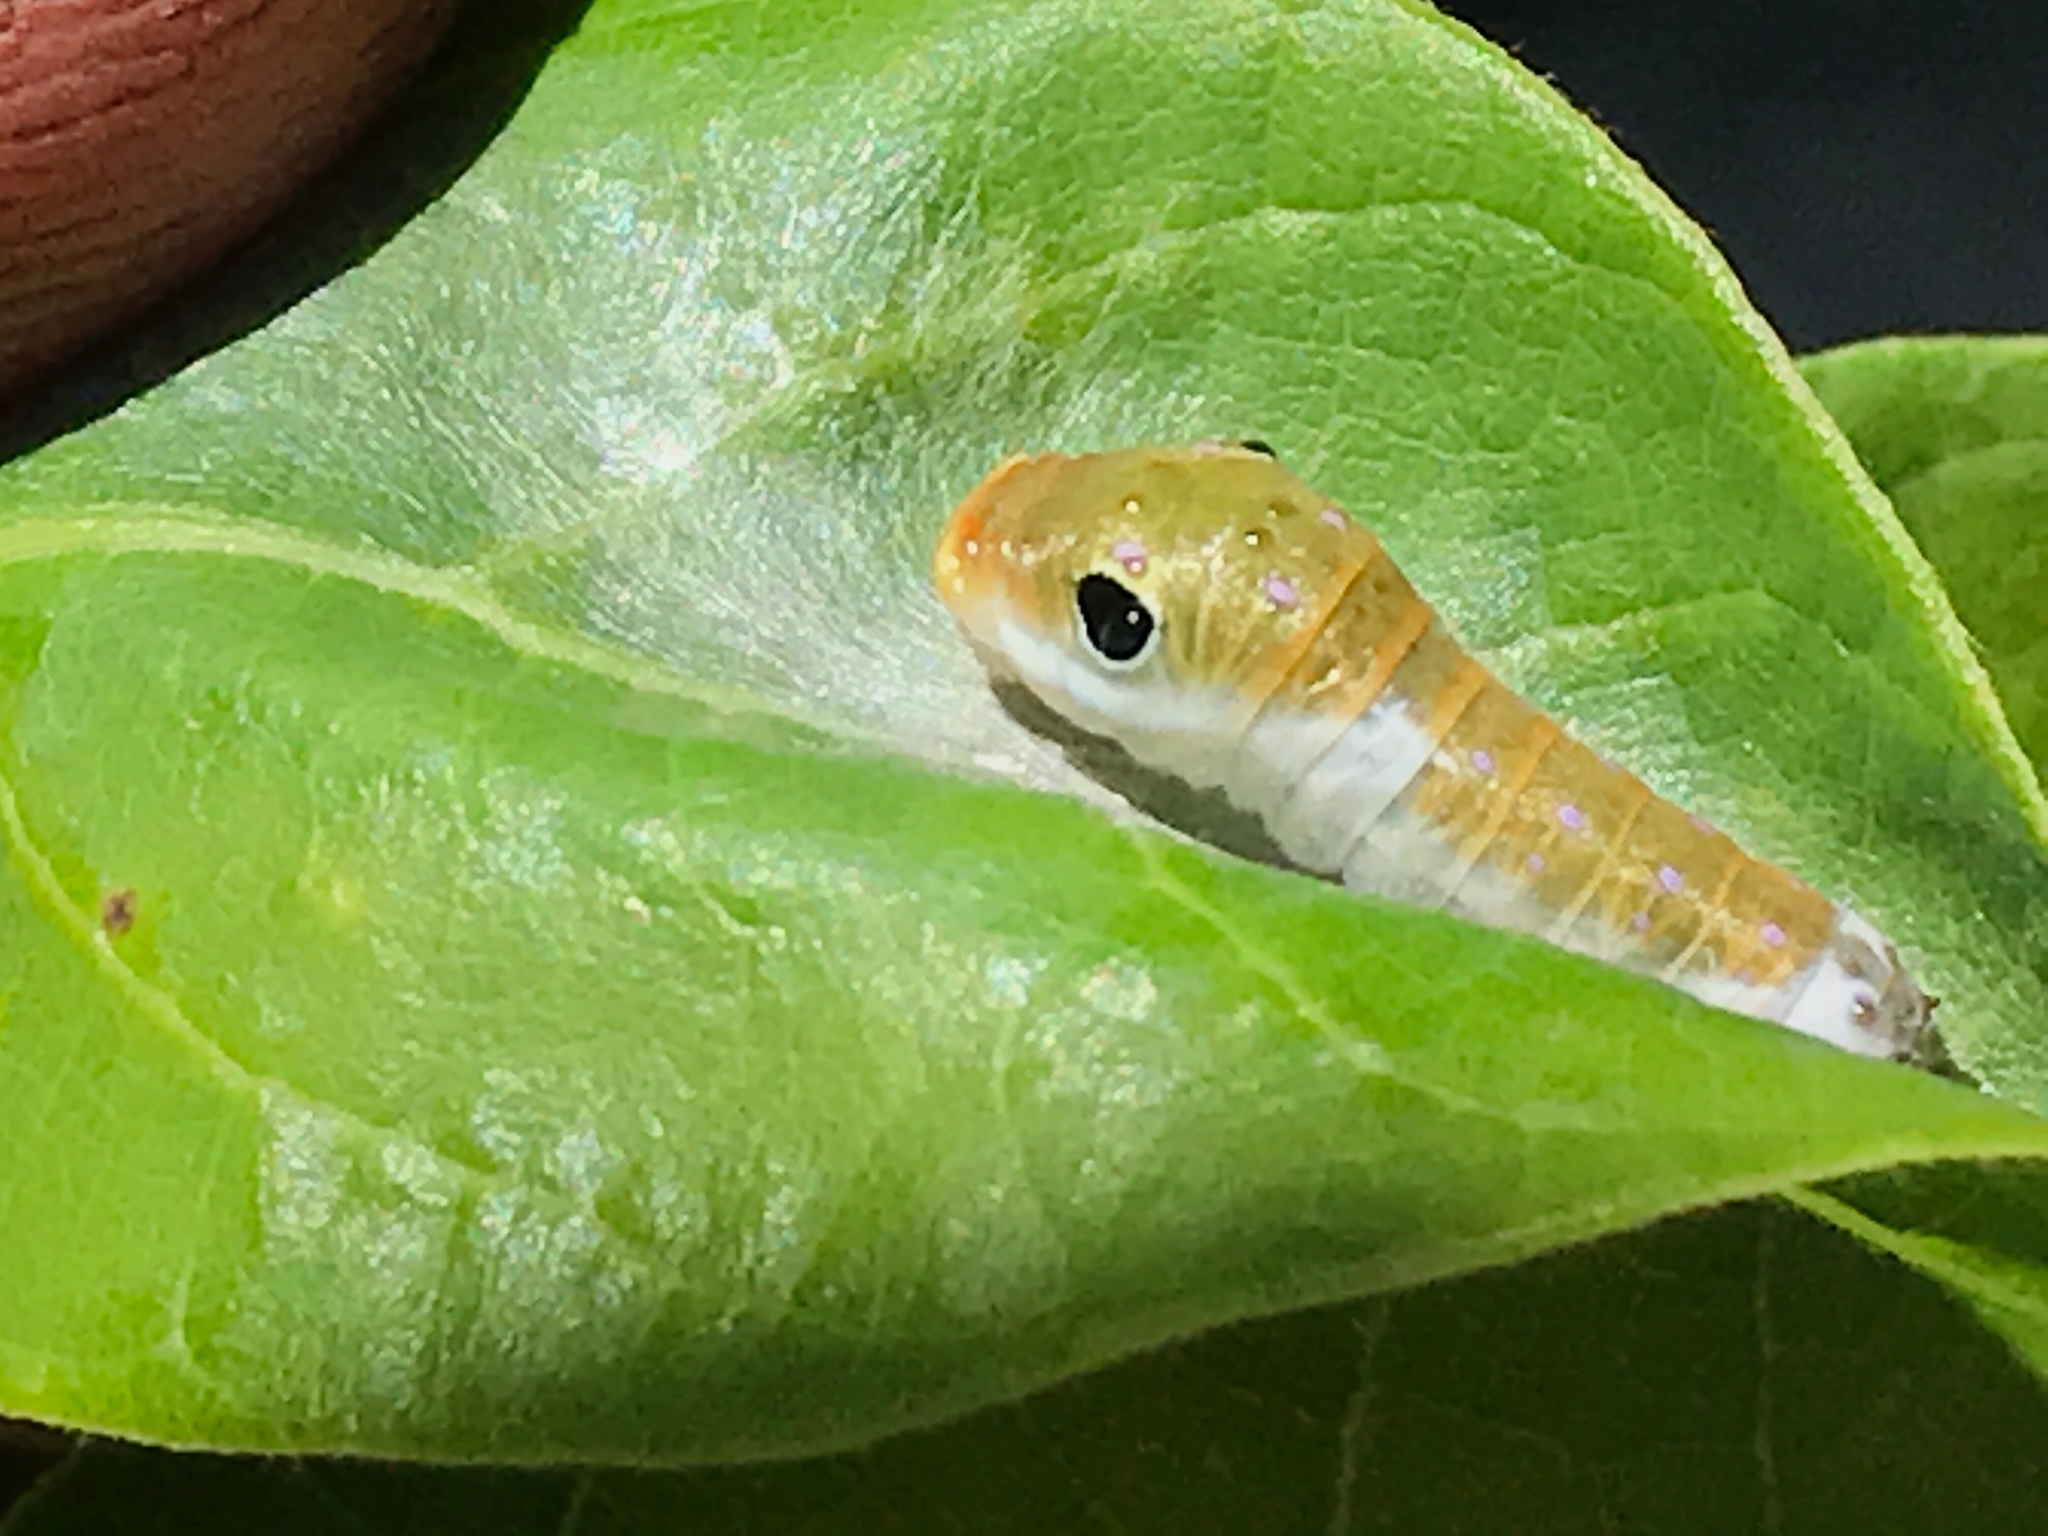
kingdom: Animalia
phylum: Arthropoda
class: Insecta
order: Lepidoptera
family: Papilionidae
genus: Papilio
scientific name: Papilio troilus
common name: Spicebush swallowtail
